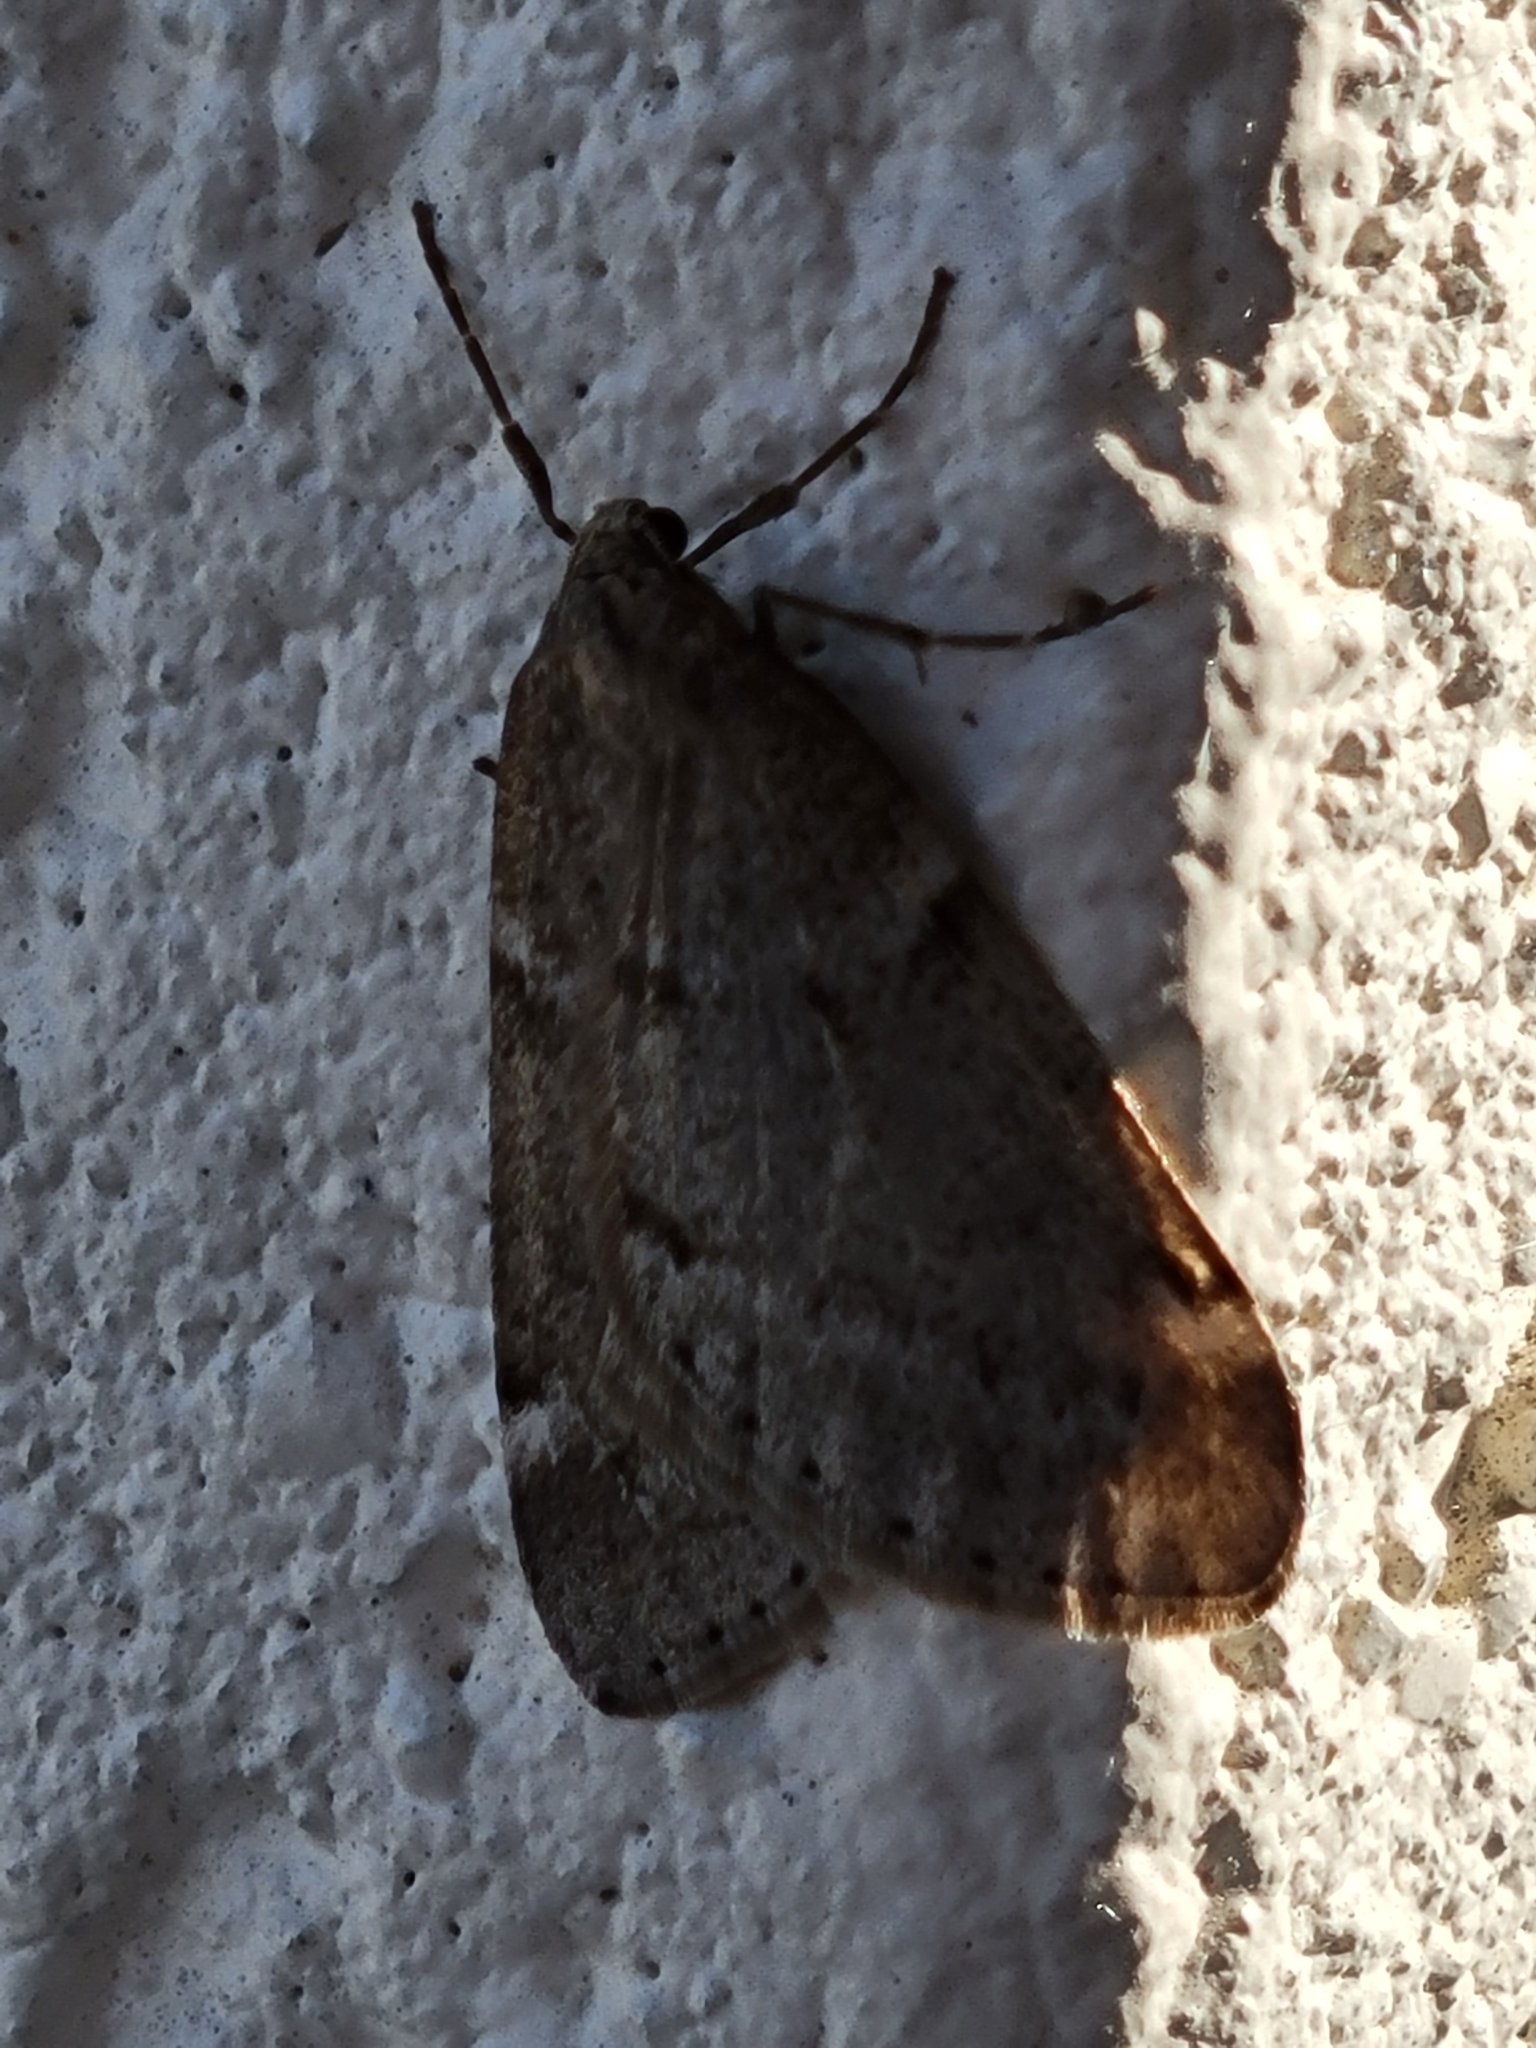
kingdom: Animalia
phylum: Arthropoda
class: Insecta
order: Lepidoptera
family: Geometridae
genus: Alsophila
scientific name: Alsophila pometaria
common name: Fall cankerworm
